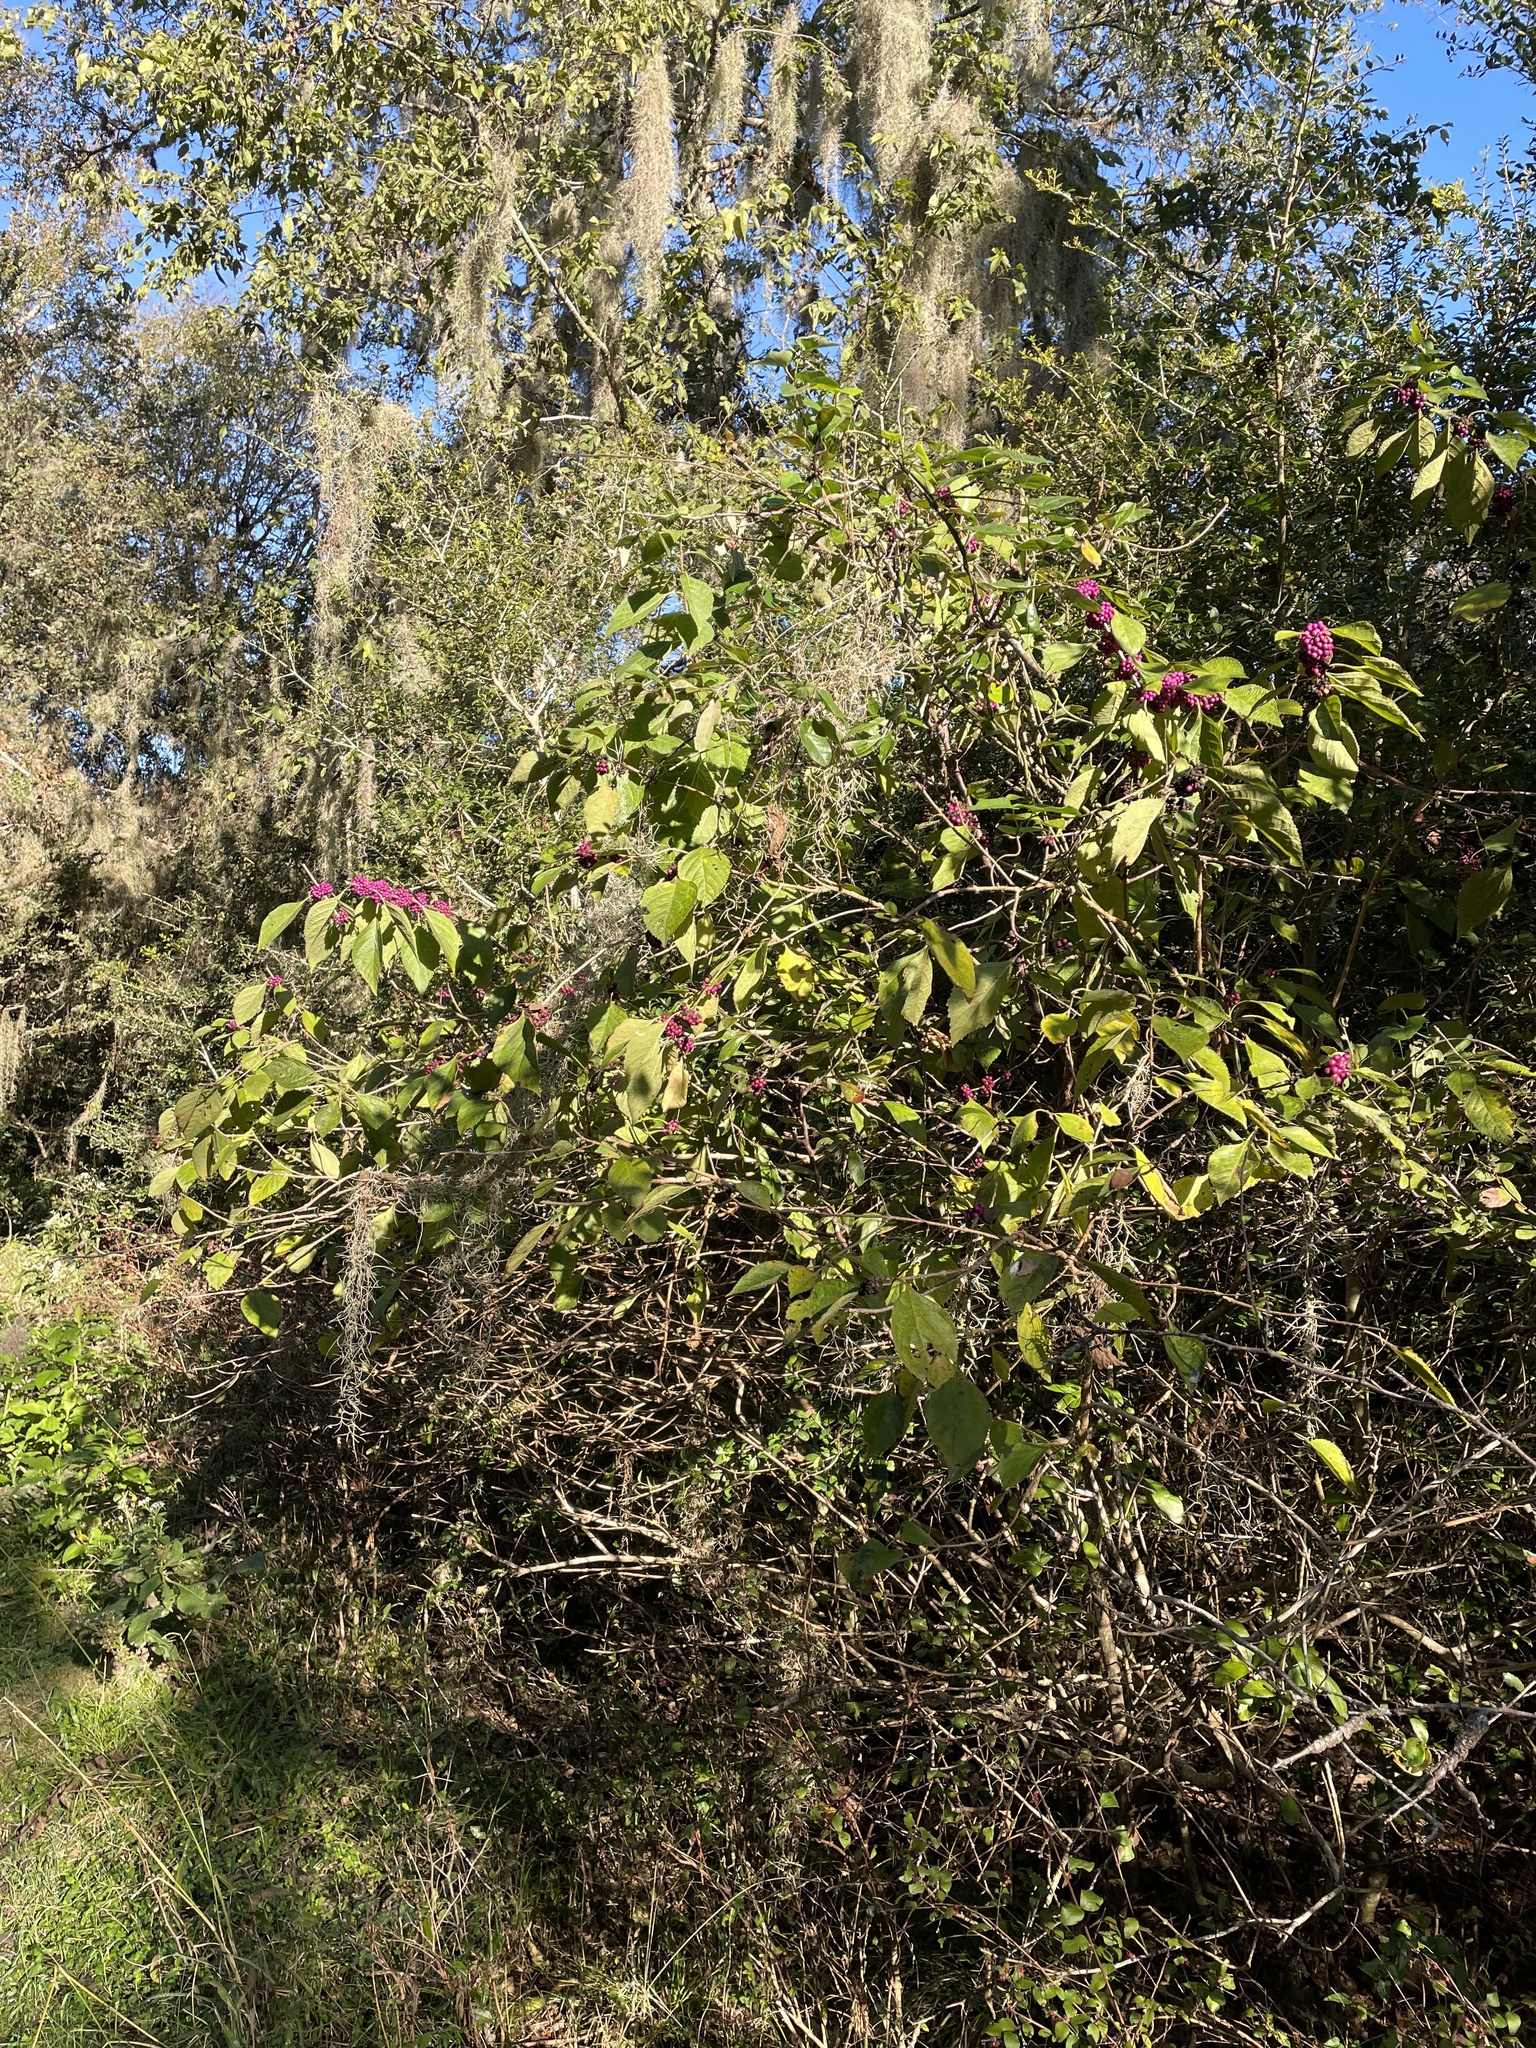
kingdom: Plantae
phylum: Tracheophyta
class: Magnoliopsida
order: Lamiales
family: Lamiaceae
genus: Callicarpa
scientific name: Callicarpa americana
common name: American beautyberry
